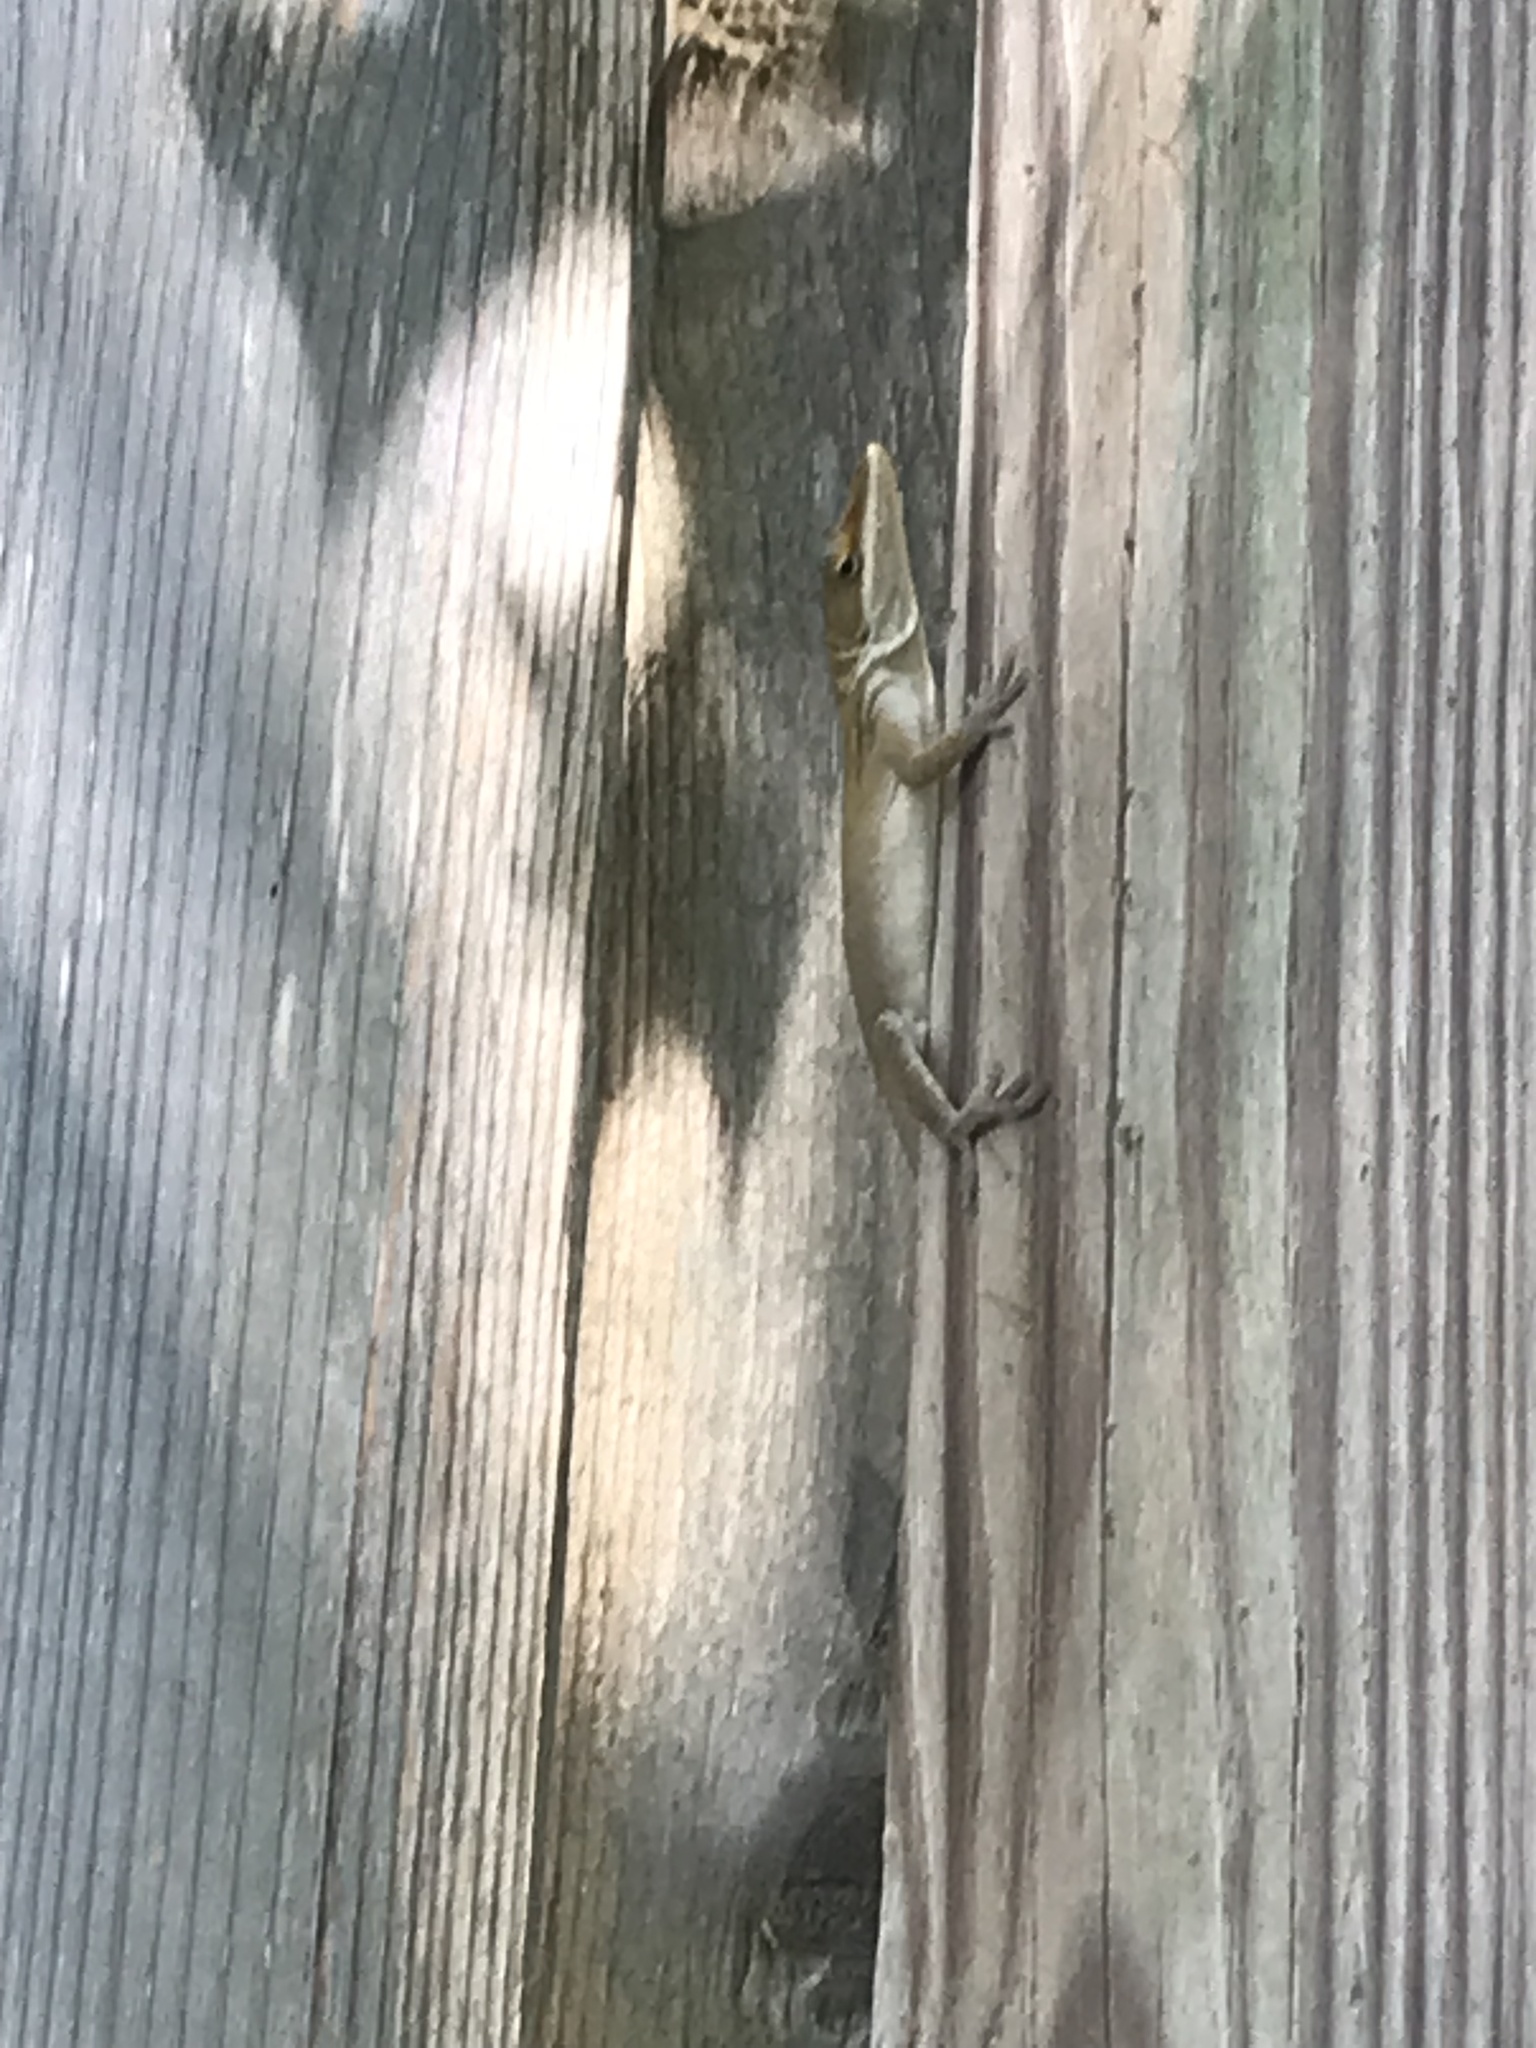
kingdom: Animalia
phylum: Chordata
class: Squamata
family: Dactyloidae
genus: Anolis
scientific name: Anolis carolinensis
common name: Green anole
